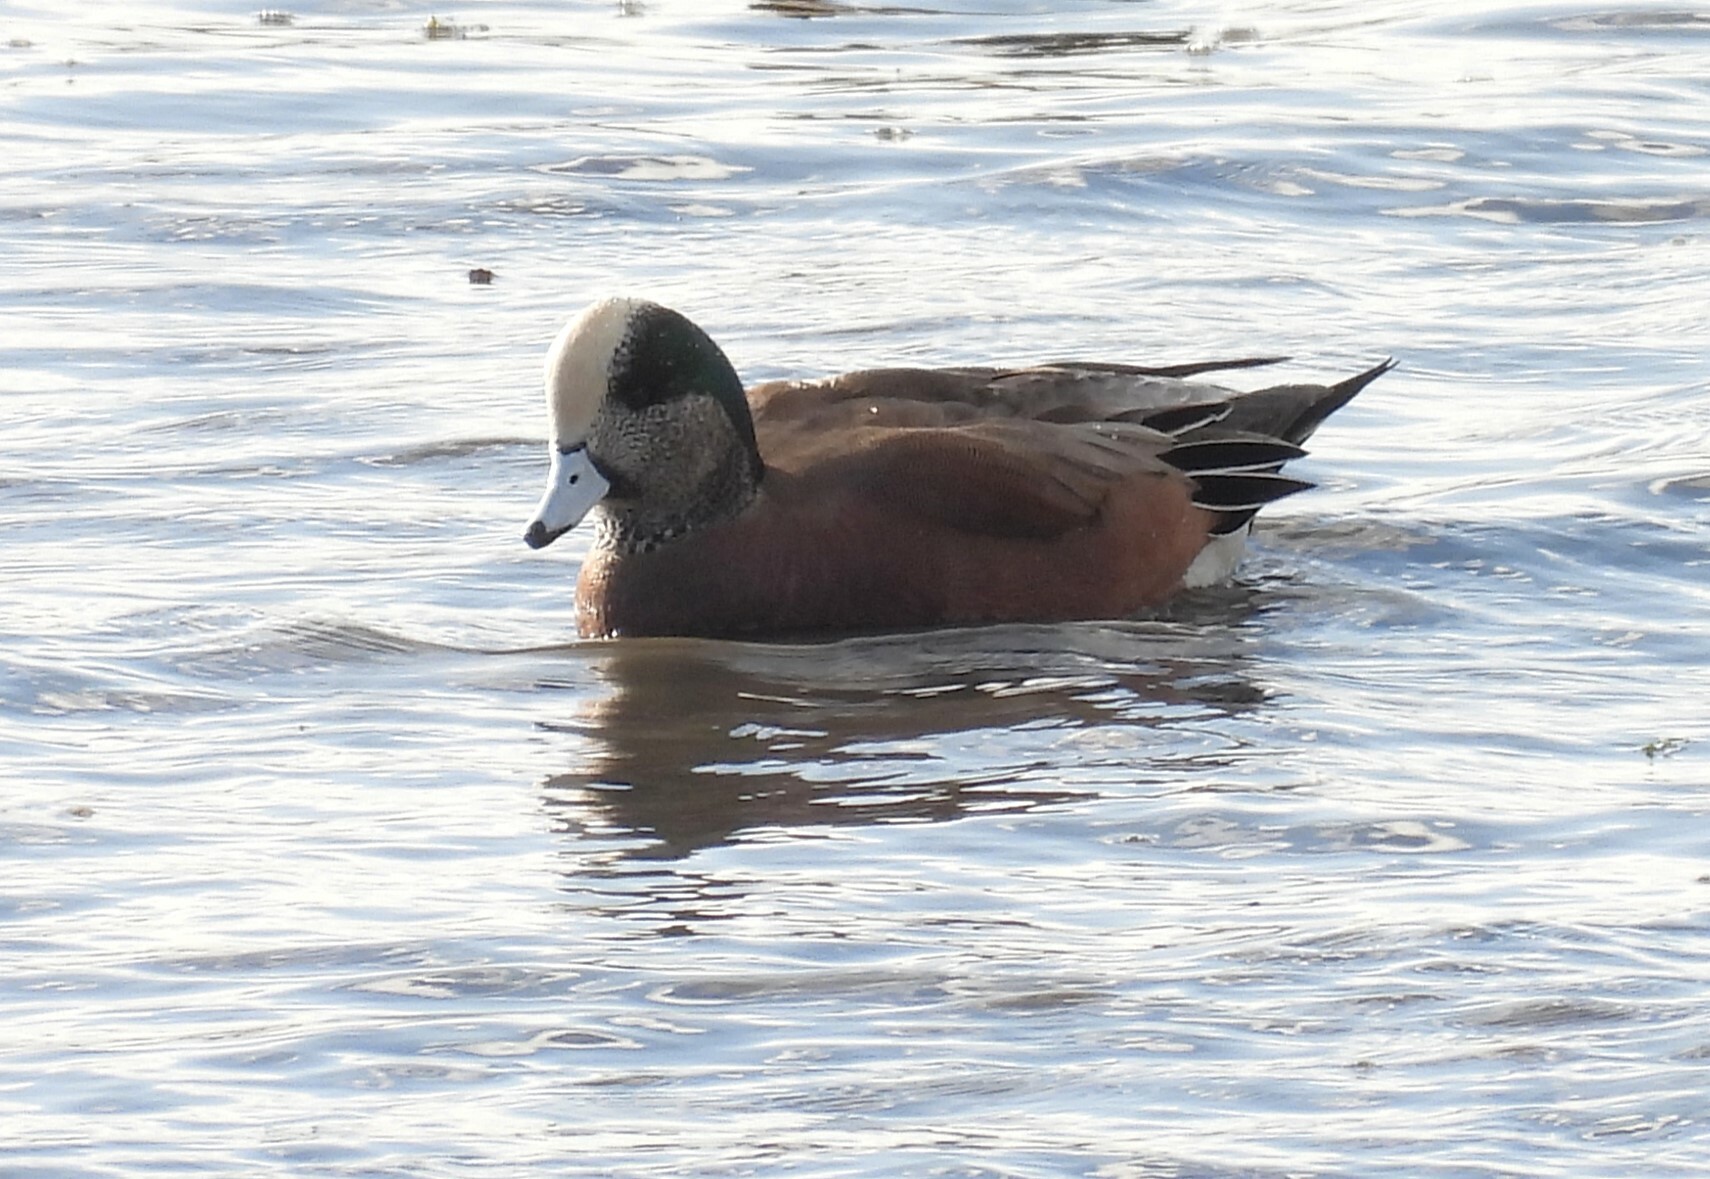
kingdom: Animalia
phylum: Chordata
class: Aves
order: Anseriformes
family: Anatidae
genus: Mareca
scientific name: Mareca americana
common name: American wigeon
